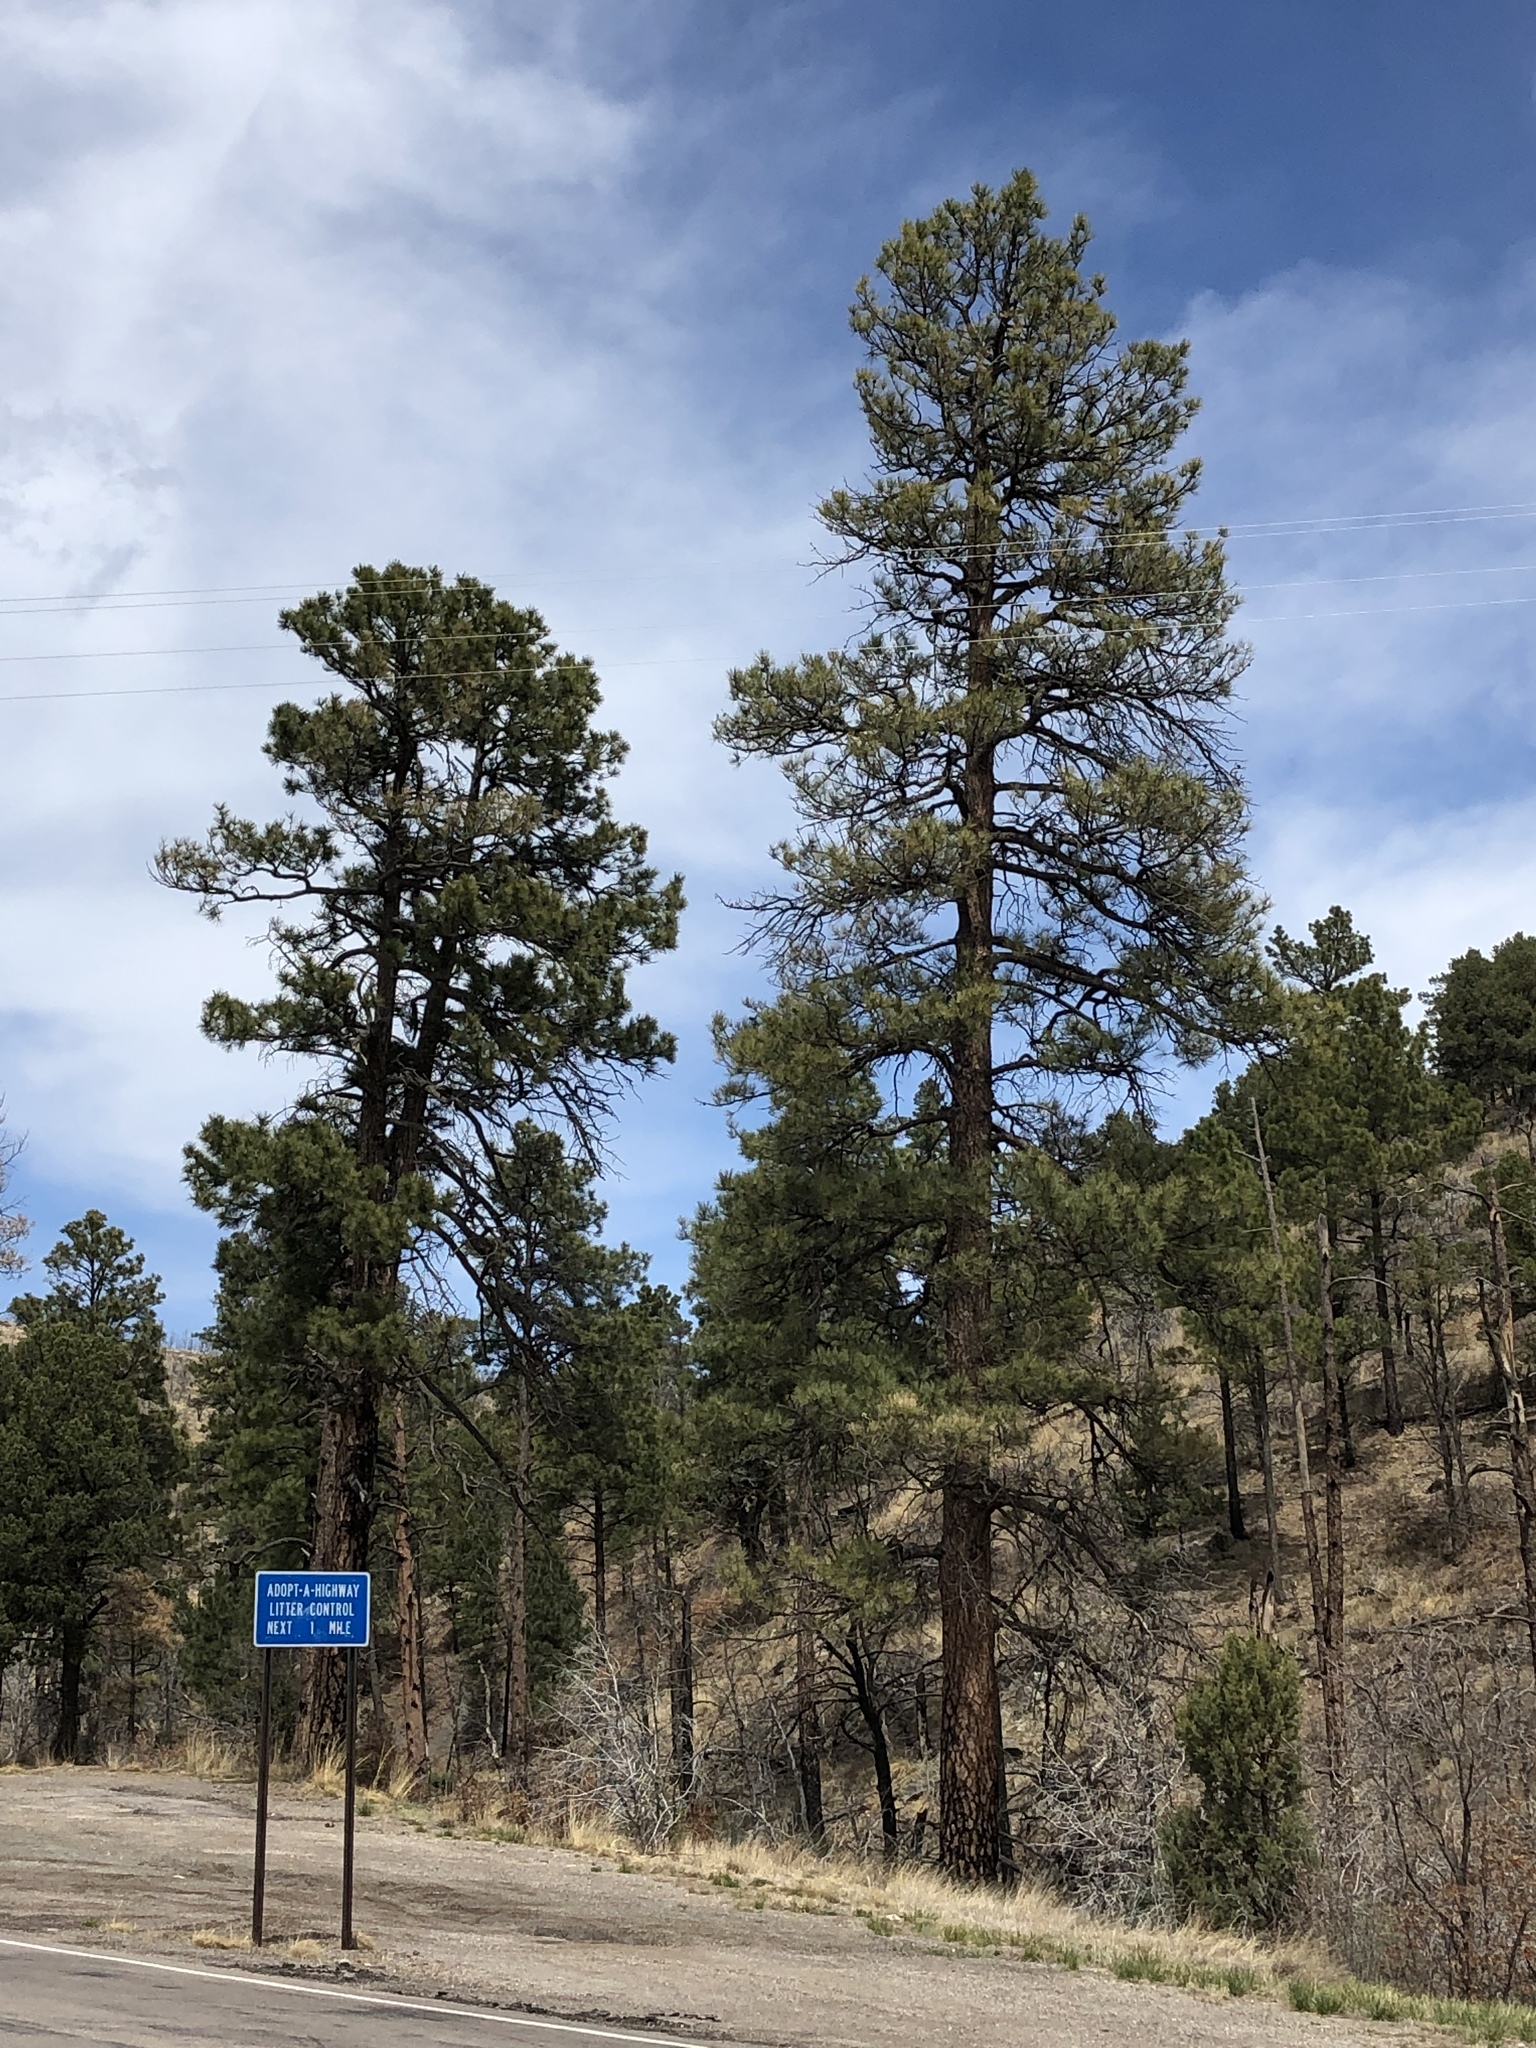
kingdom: Plantae
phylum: Tracheophyta
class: Pinopsida
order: Pinales
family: Pinaceae
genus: Pinus
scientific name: Pinus ponderosa
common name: Western yellow-pine
